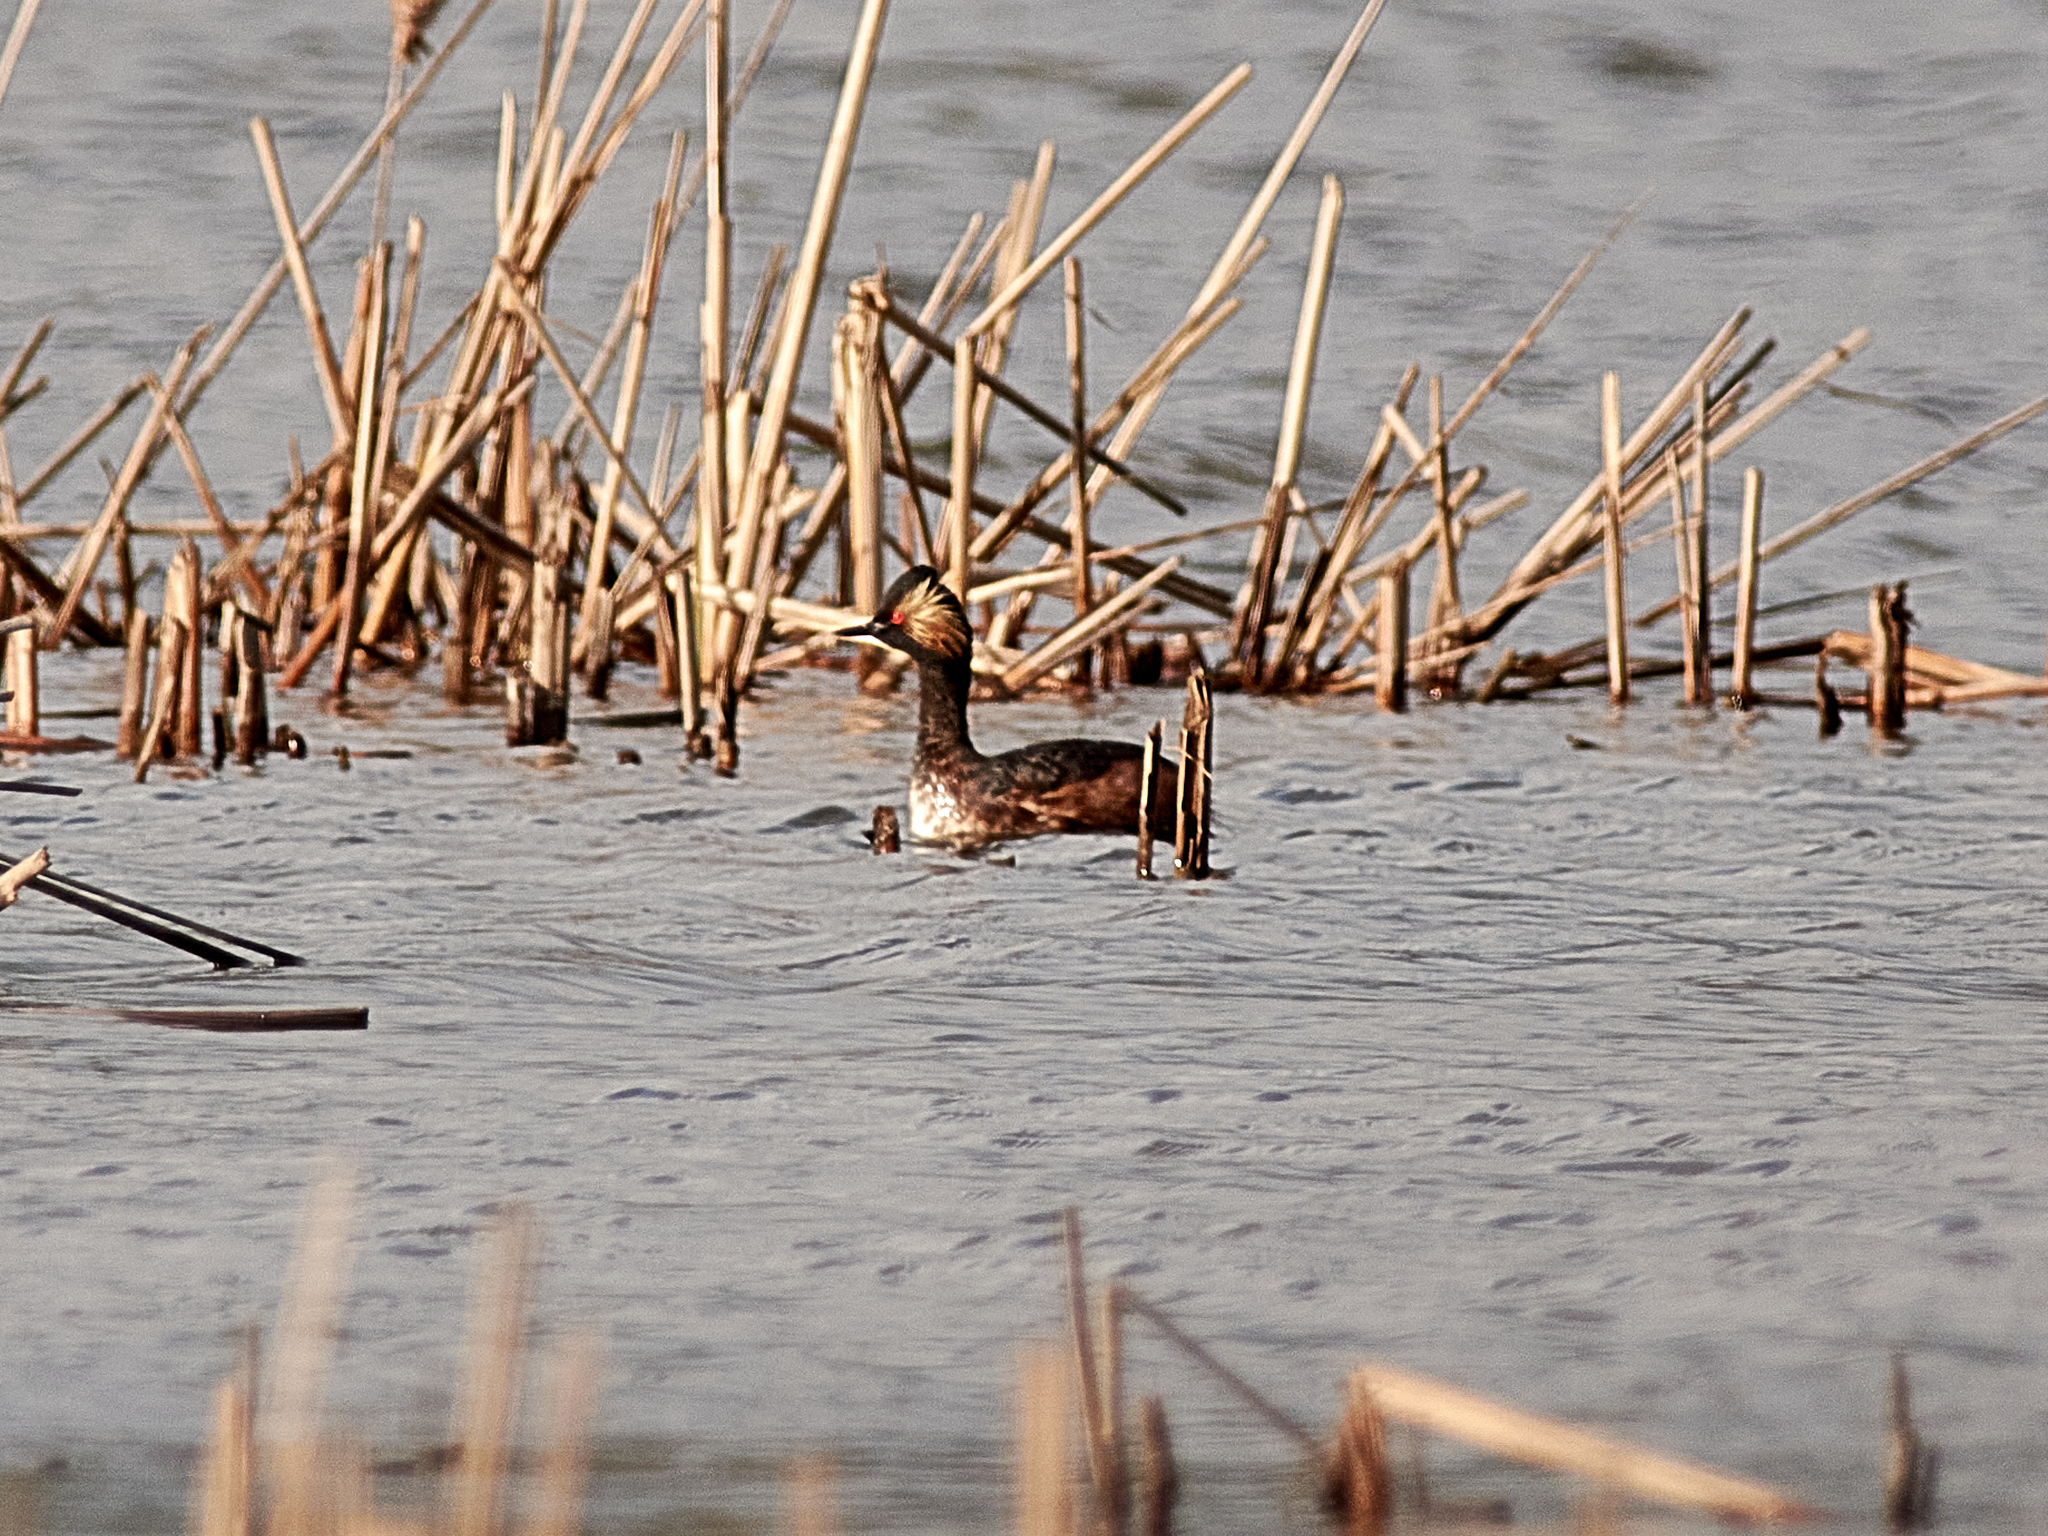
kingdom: Animalia
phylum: Chordata
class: Aves
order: Podicipediformes
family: Podicipedidae
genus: Podiceps
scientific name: Podiceps nigricollis
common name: Black-necked grebe
